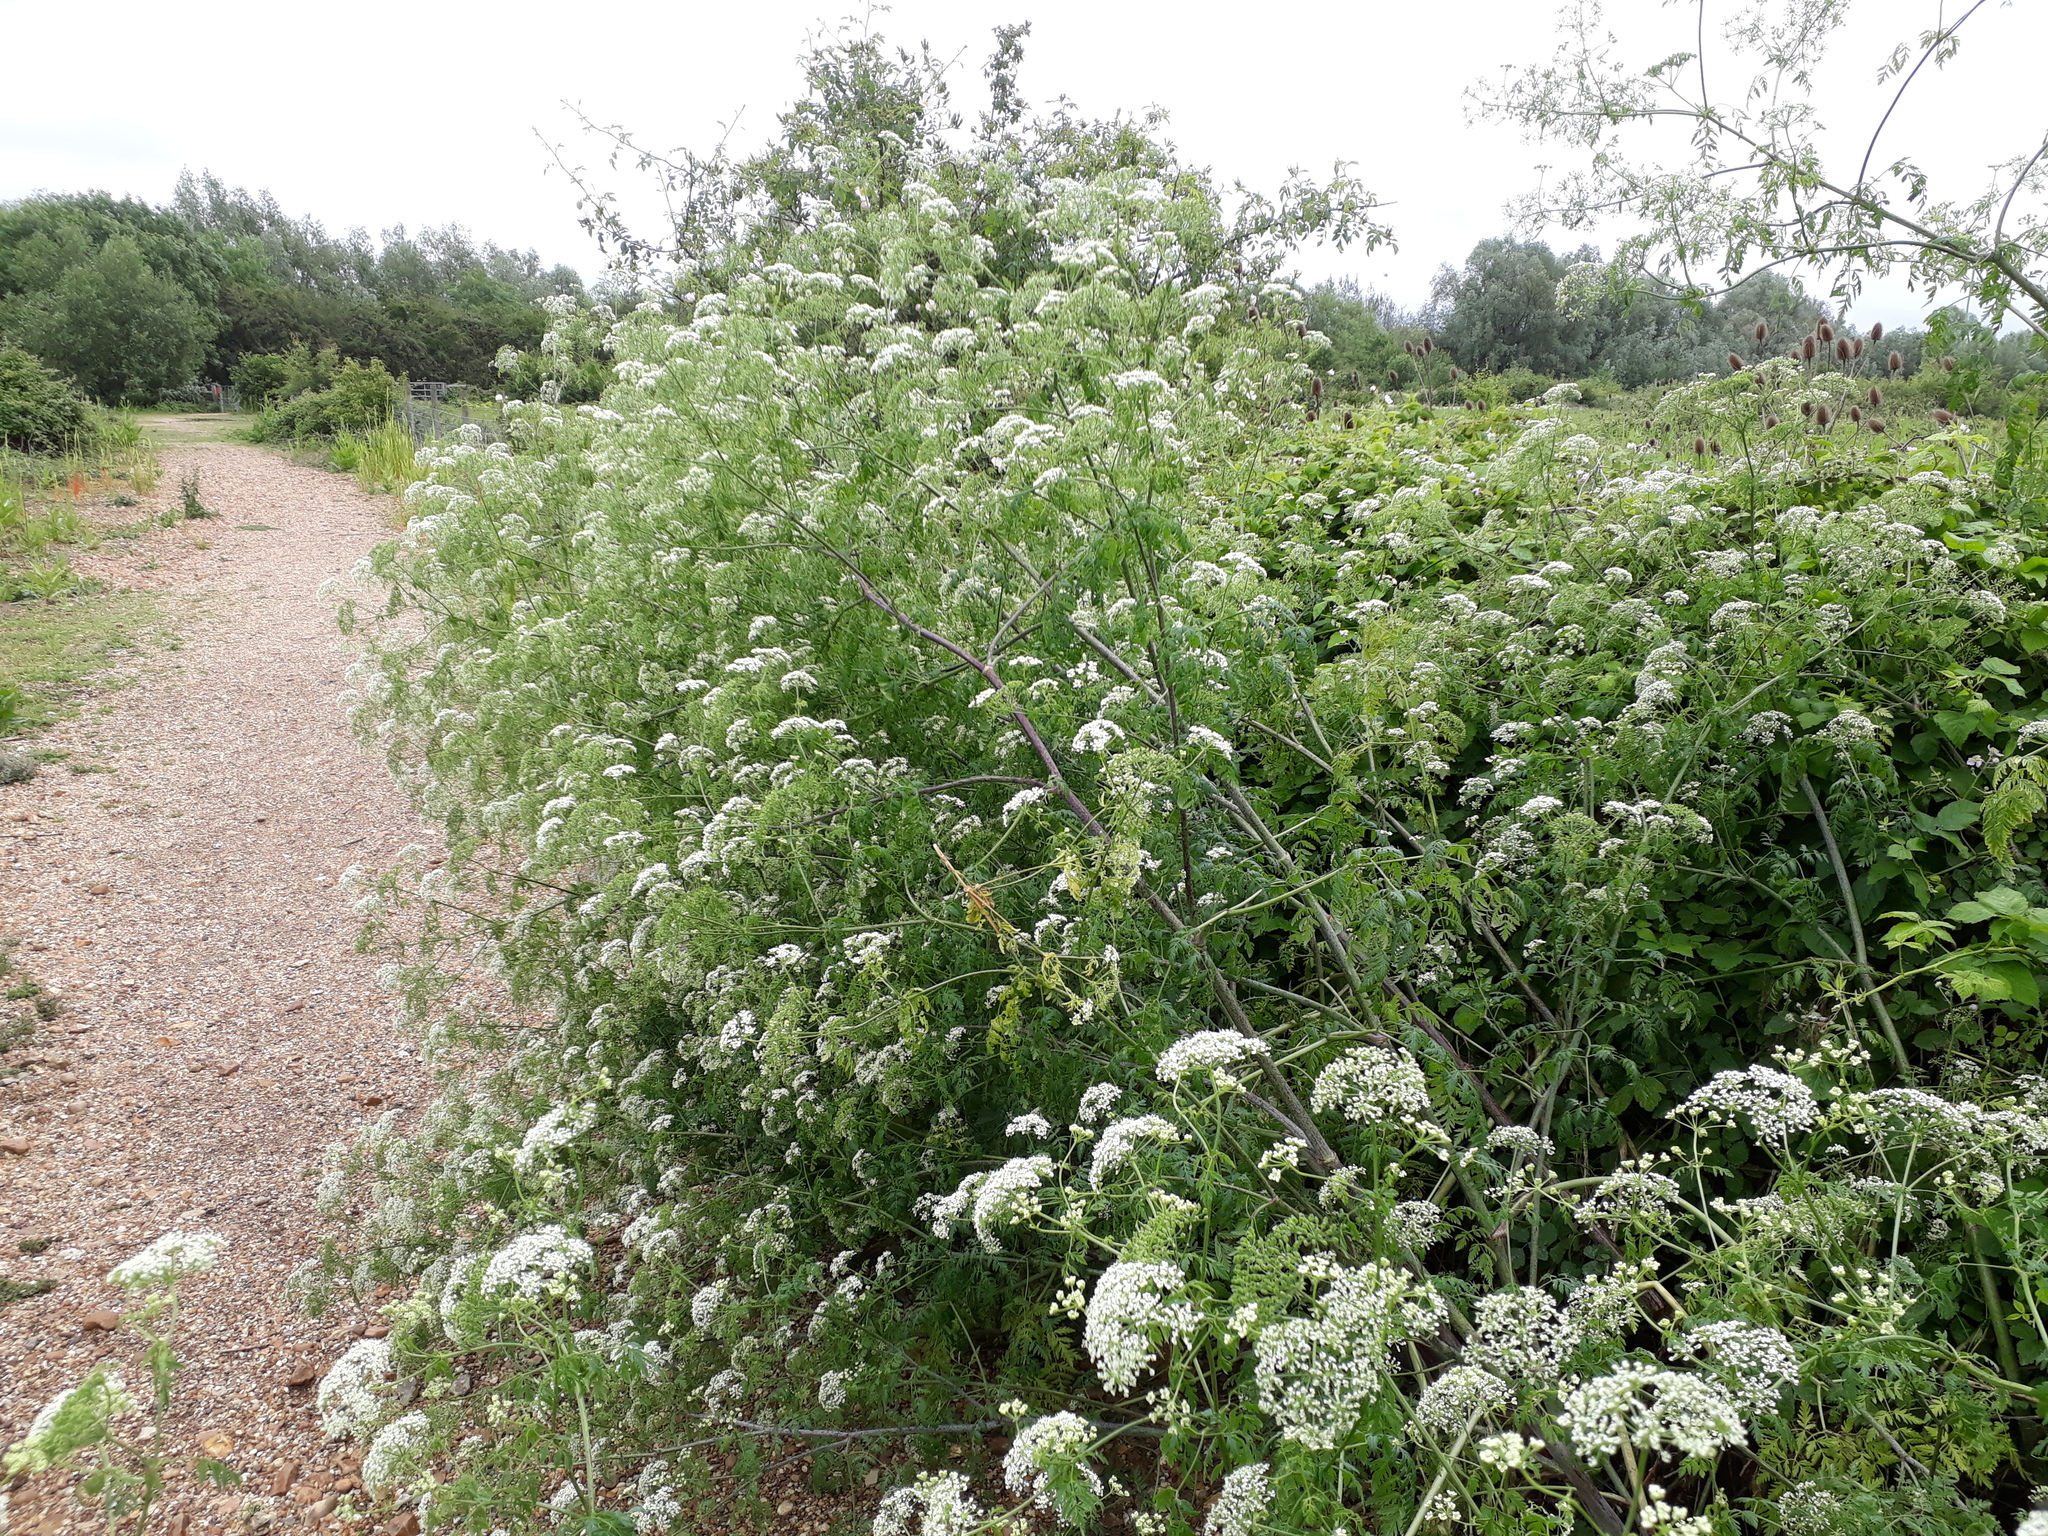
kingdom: Plantae
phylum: Tracheophyta
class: Magnoliopsida
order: Apiales
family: Apiaceae
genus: Conium
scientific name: Conium maculatum
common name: Hemlock
